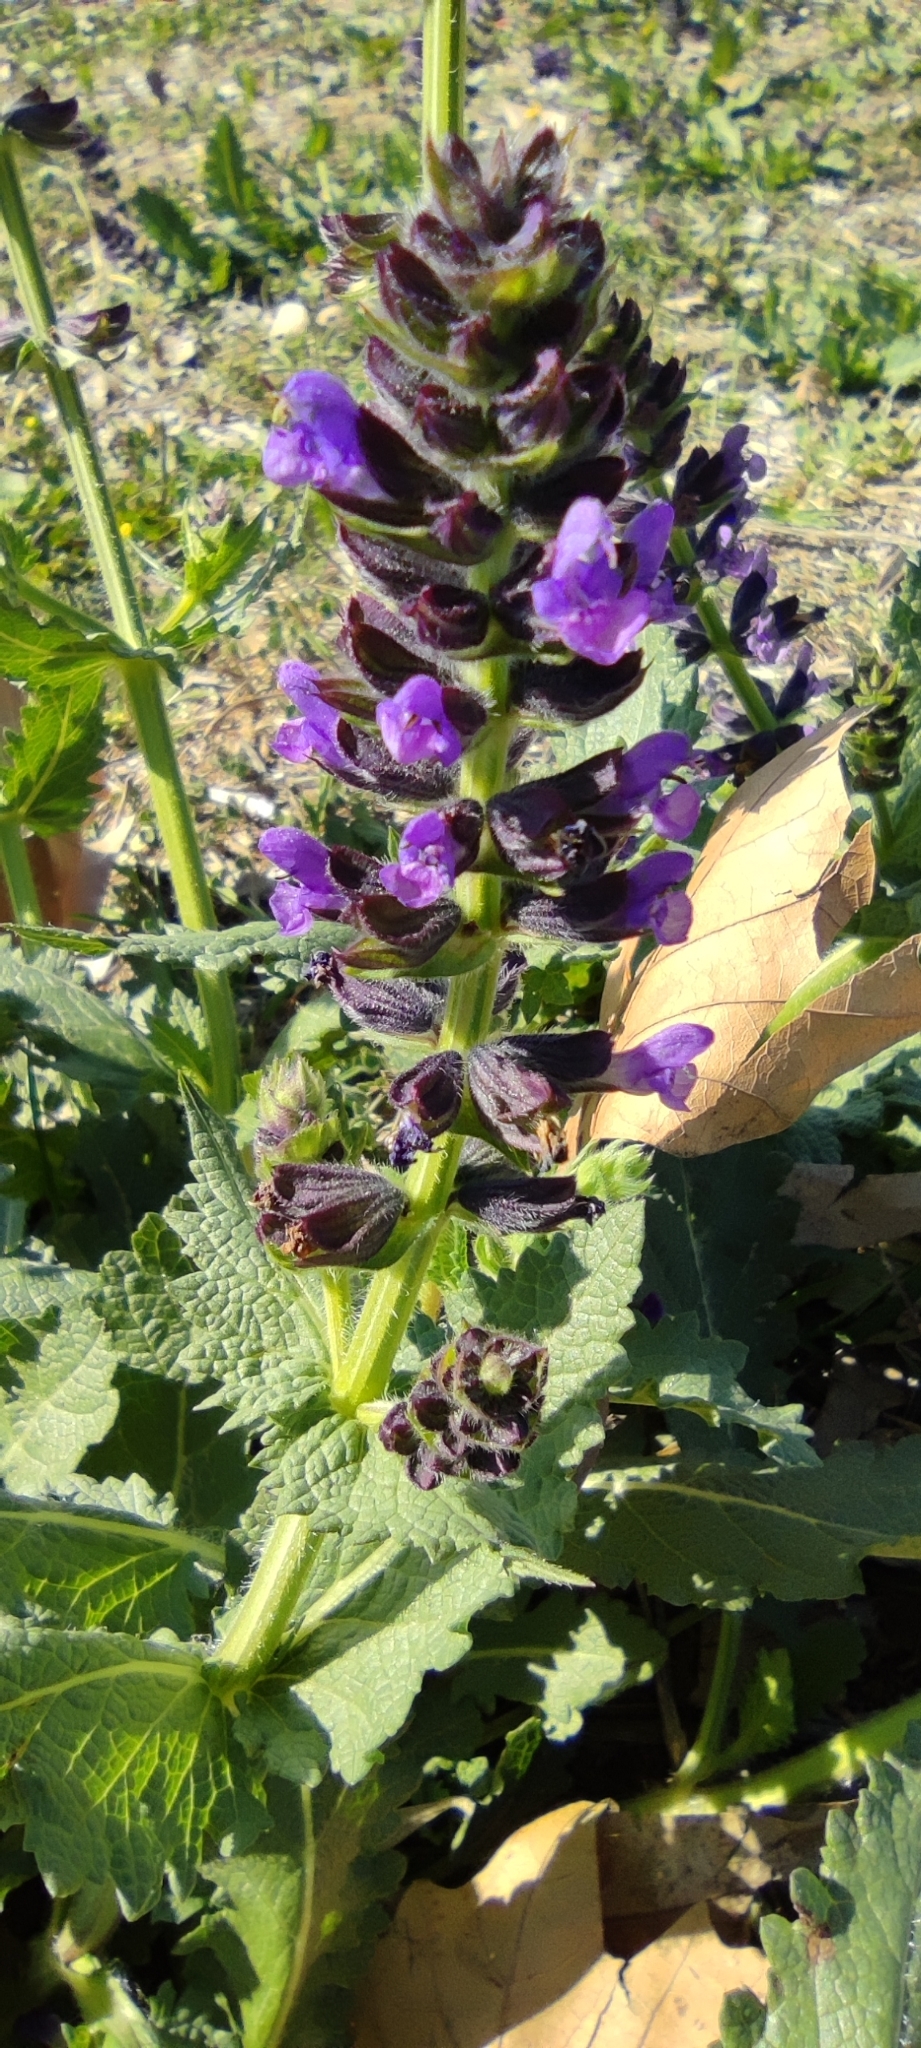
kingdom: Plantae
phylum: Tracheophyta
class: Magnoliopsida
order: Lamiales
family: Lamiaceae
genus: Salvia
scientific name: Salvia verbenaca
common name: Wild clary
